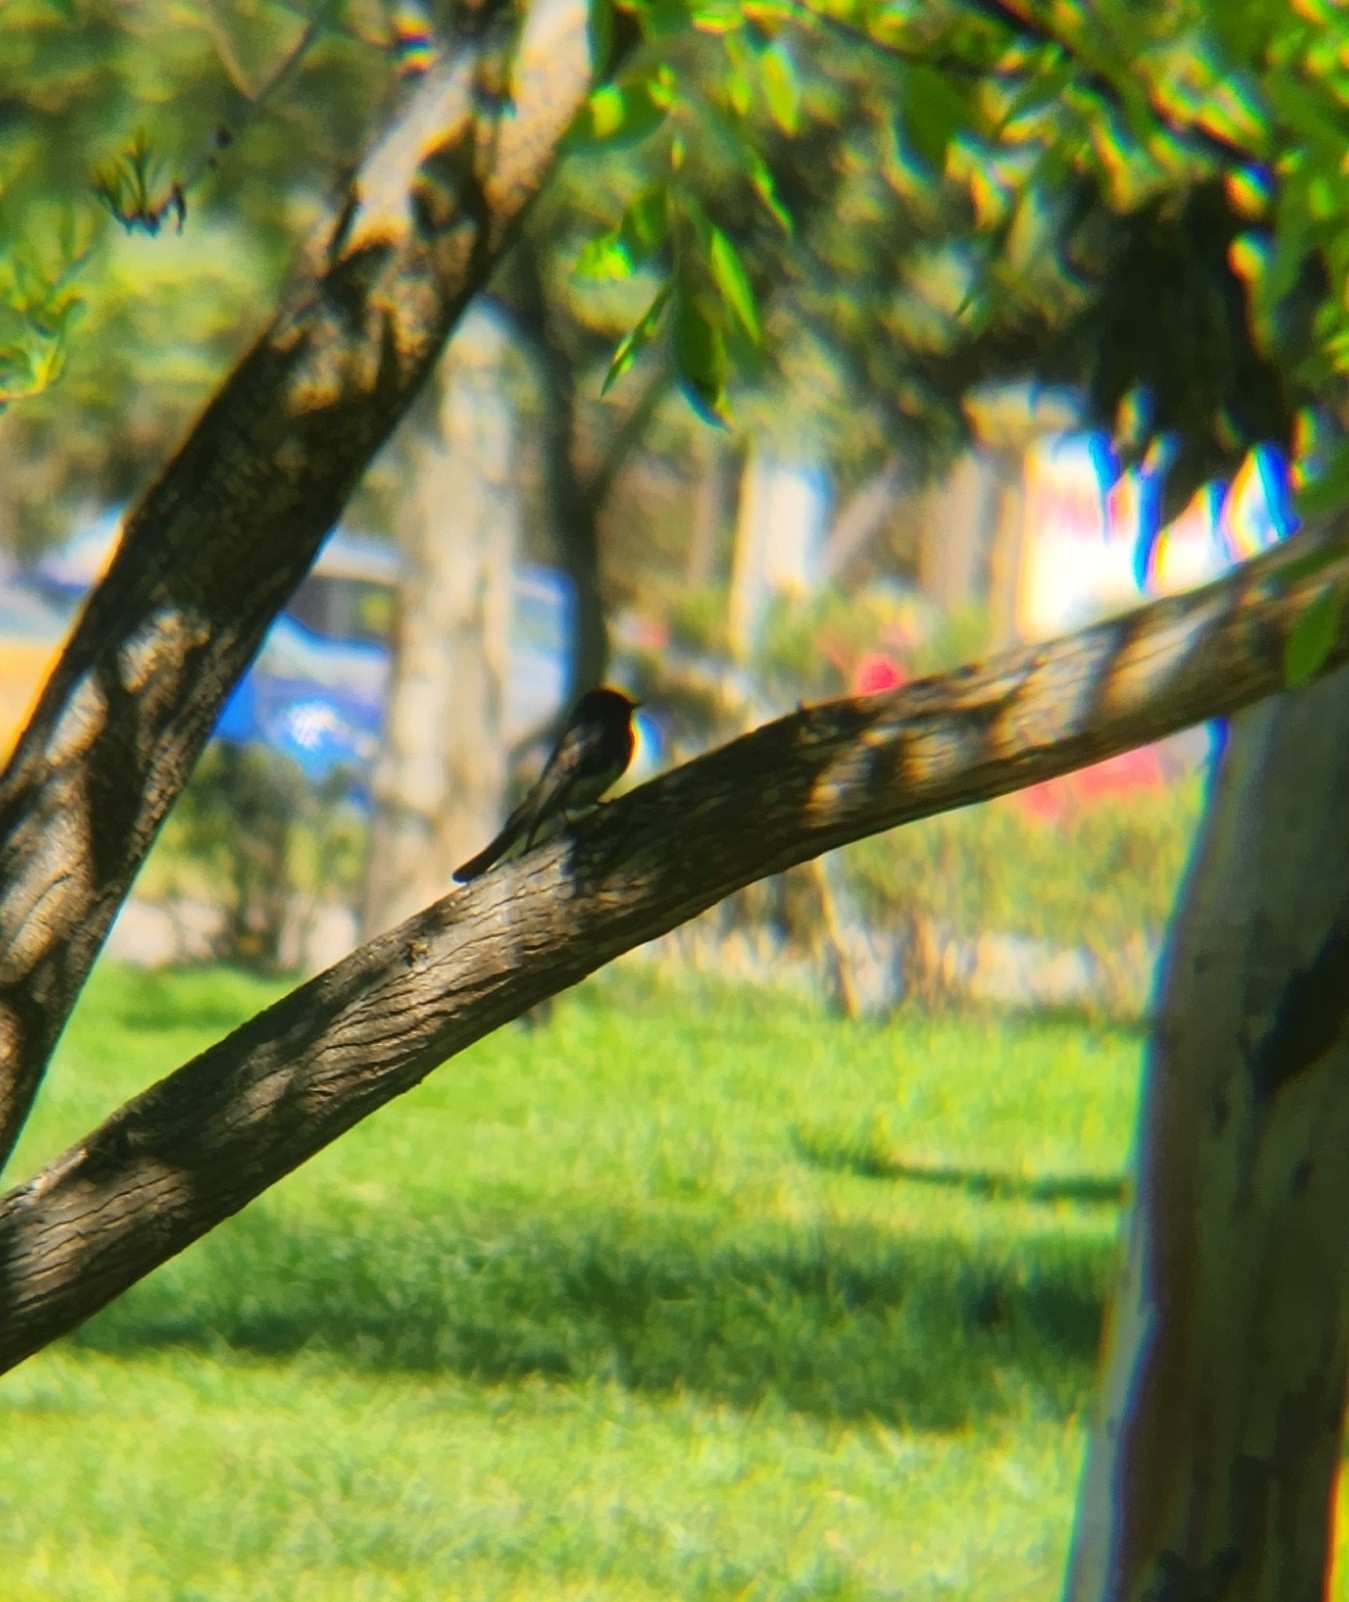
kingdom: Animalia
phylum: Chordata
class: Aves
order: Passeriformes
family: Tyrannidae
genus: Sayornis
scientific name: Sayornis nigricans
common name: Black phoebe
